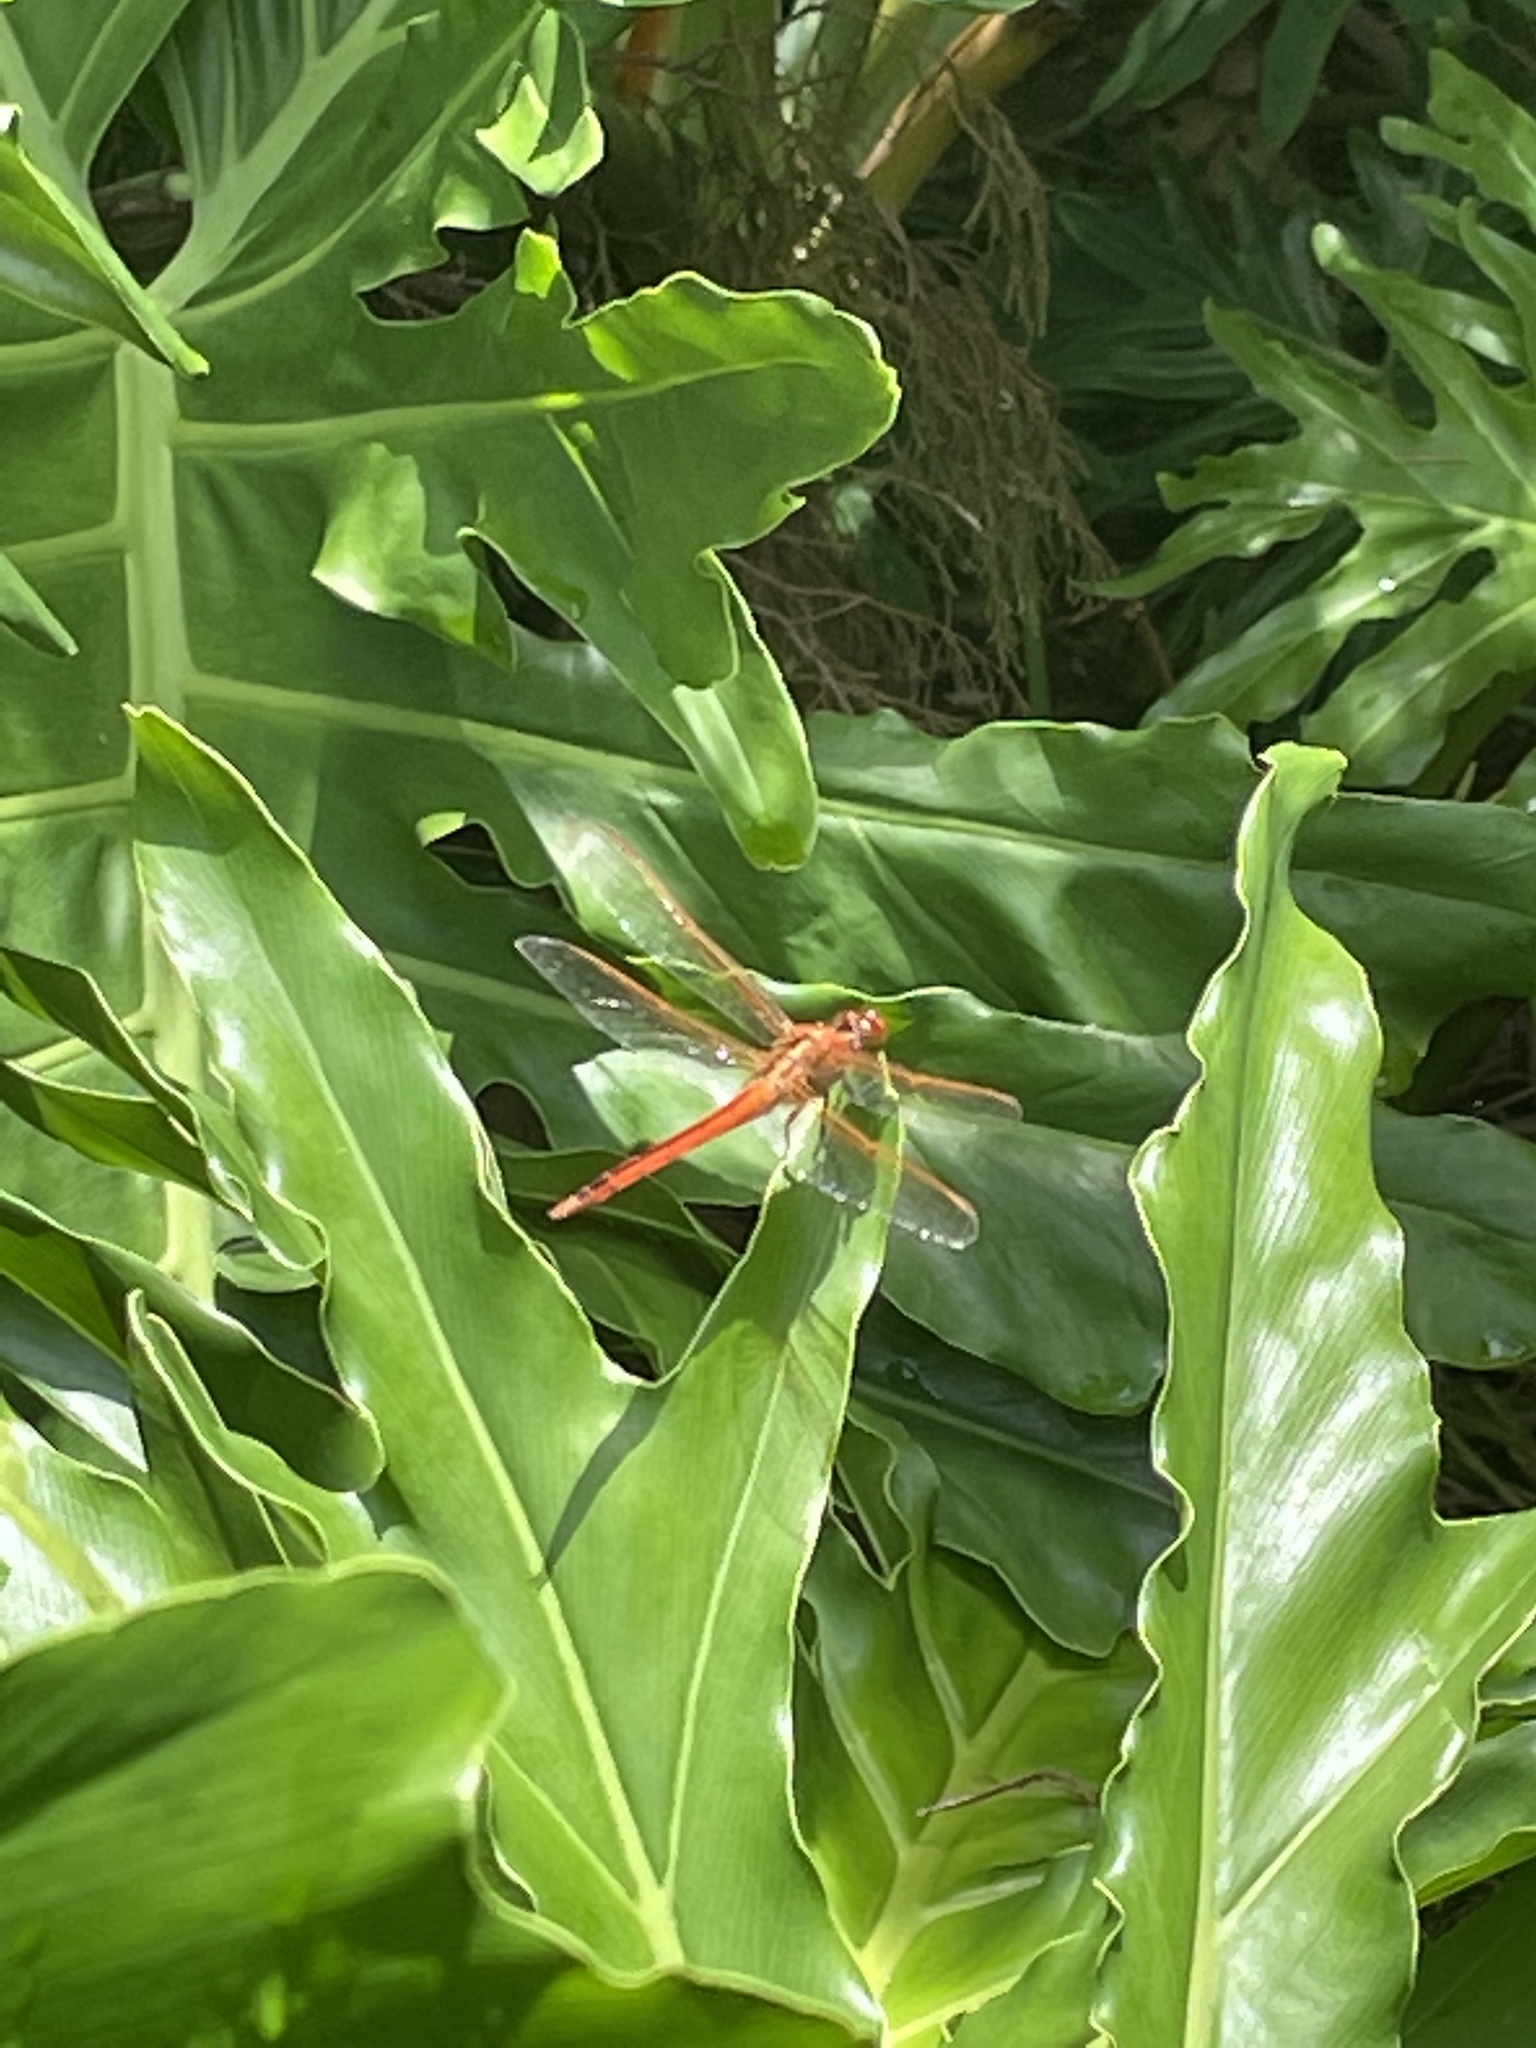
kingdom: Animalia
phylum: Arthropoda
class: Insecta
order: Odonata
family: Libellulidae
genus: Libellula
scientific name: Libellula needhami
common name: Needham's skimmer
